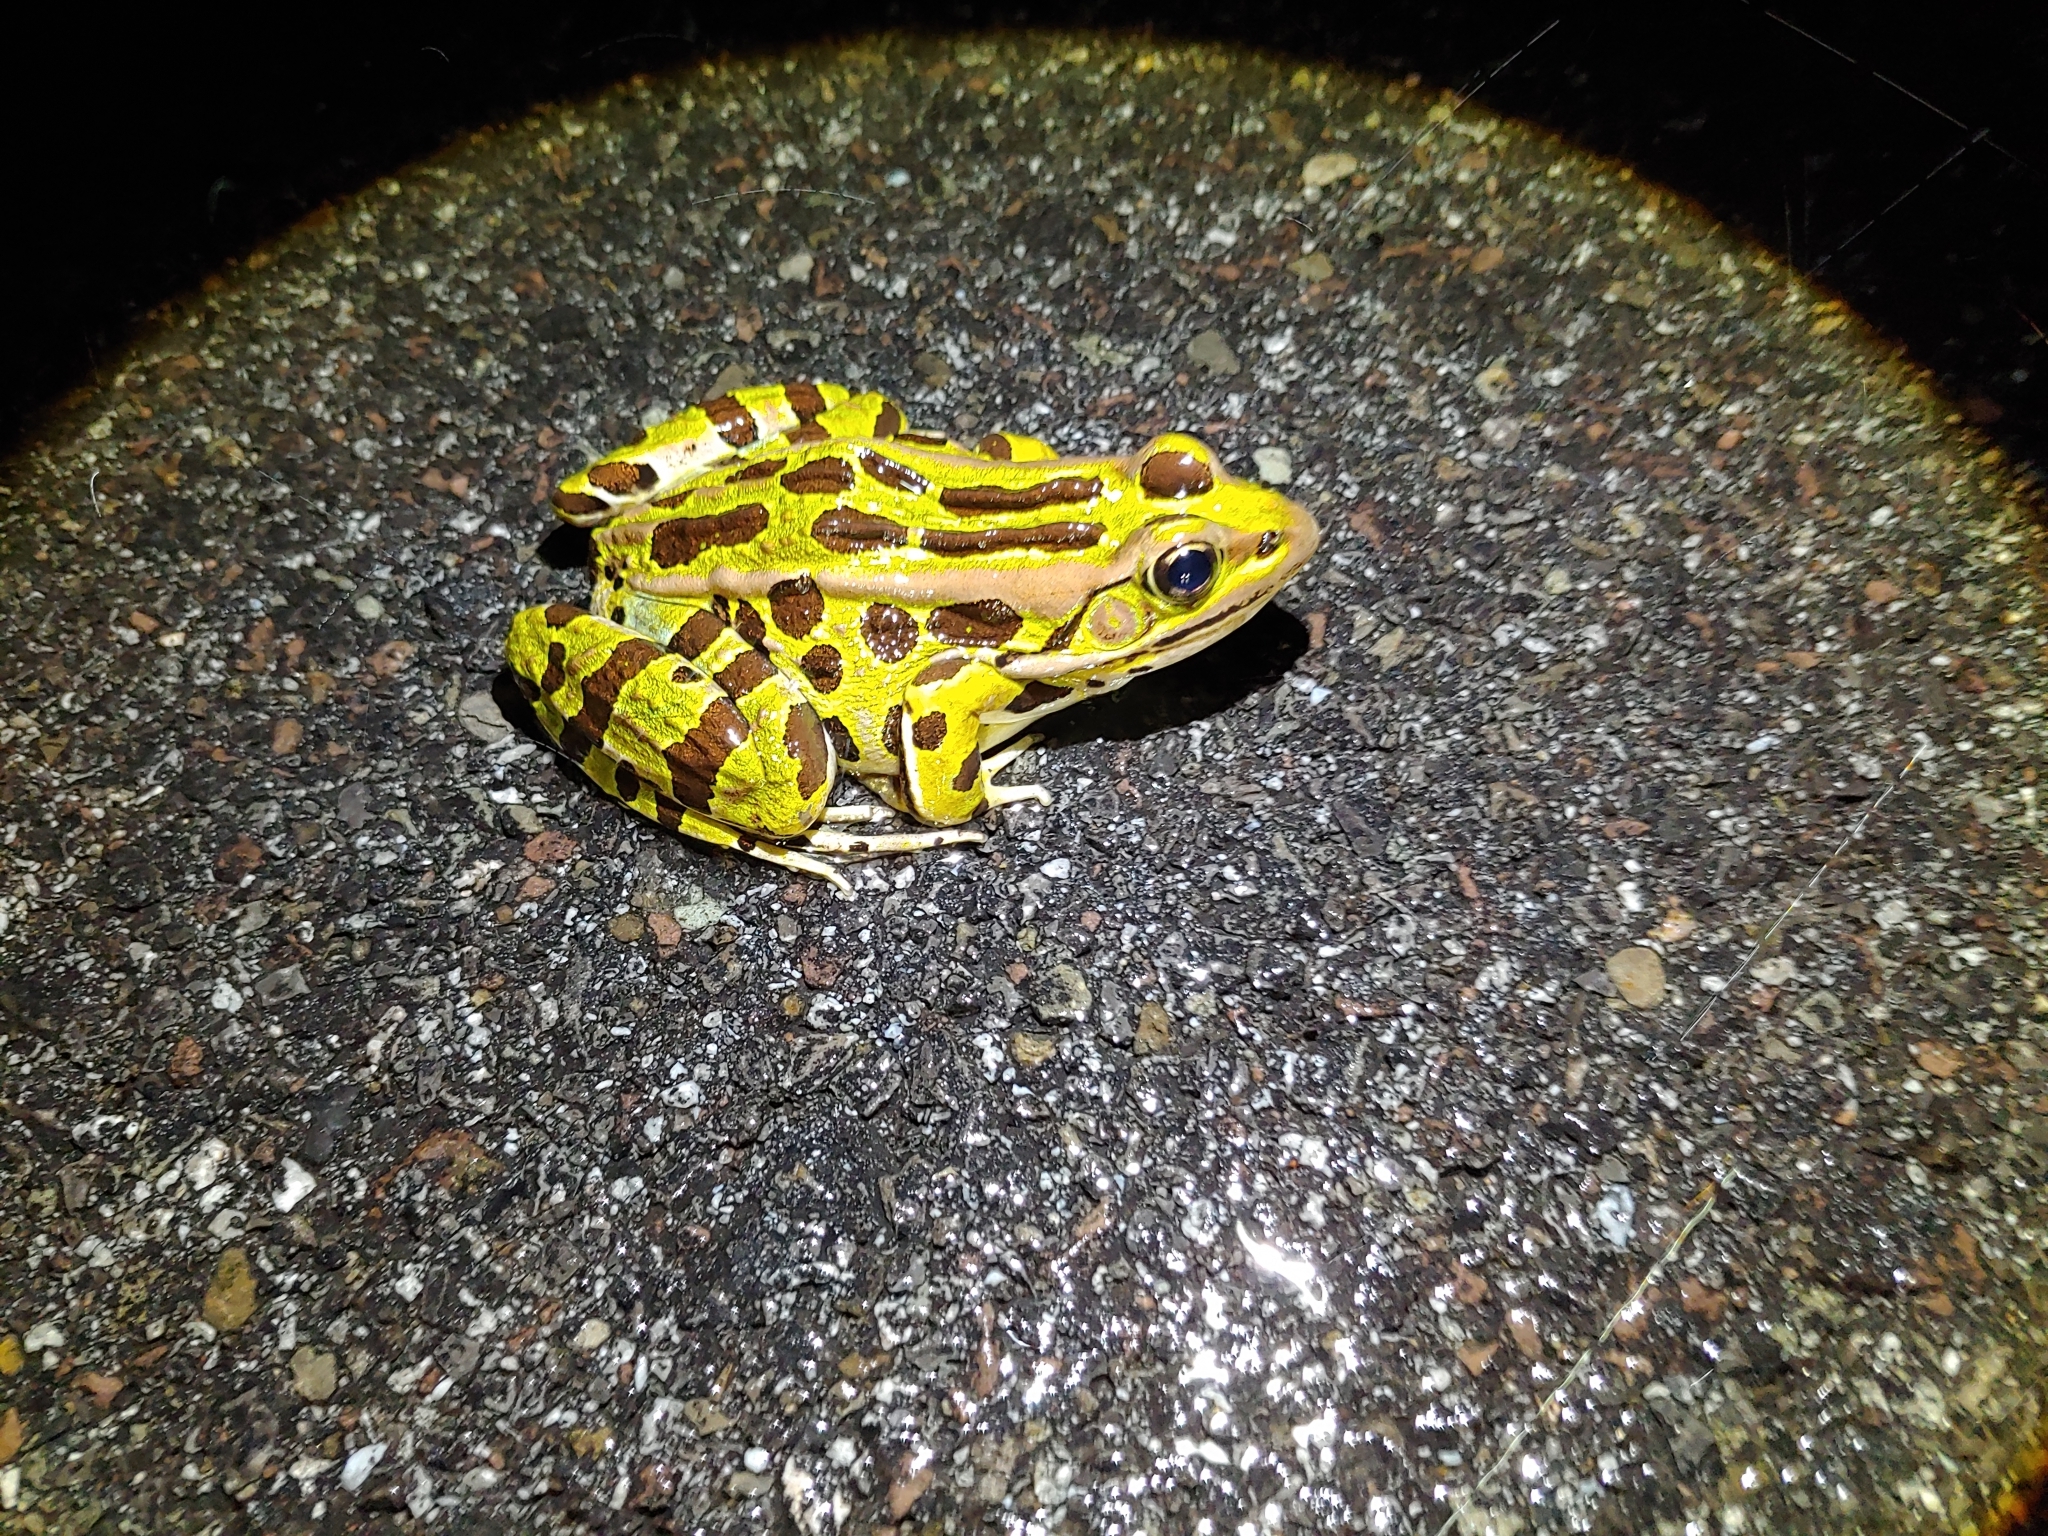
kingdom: Animalia
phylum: Chordata
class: Amphibia
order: Anura
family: Ranidae
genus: Lithobates
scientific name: Lithobates pipiens
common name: Northern leopard frog
